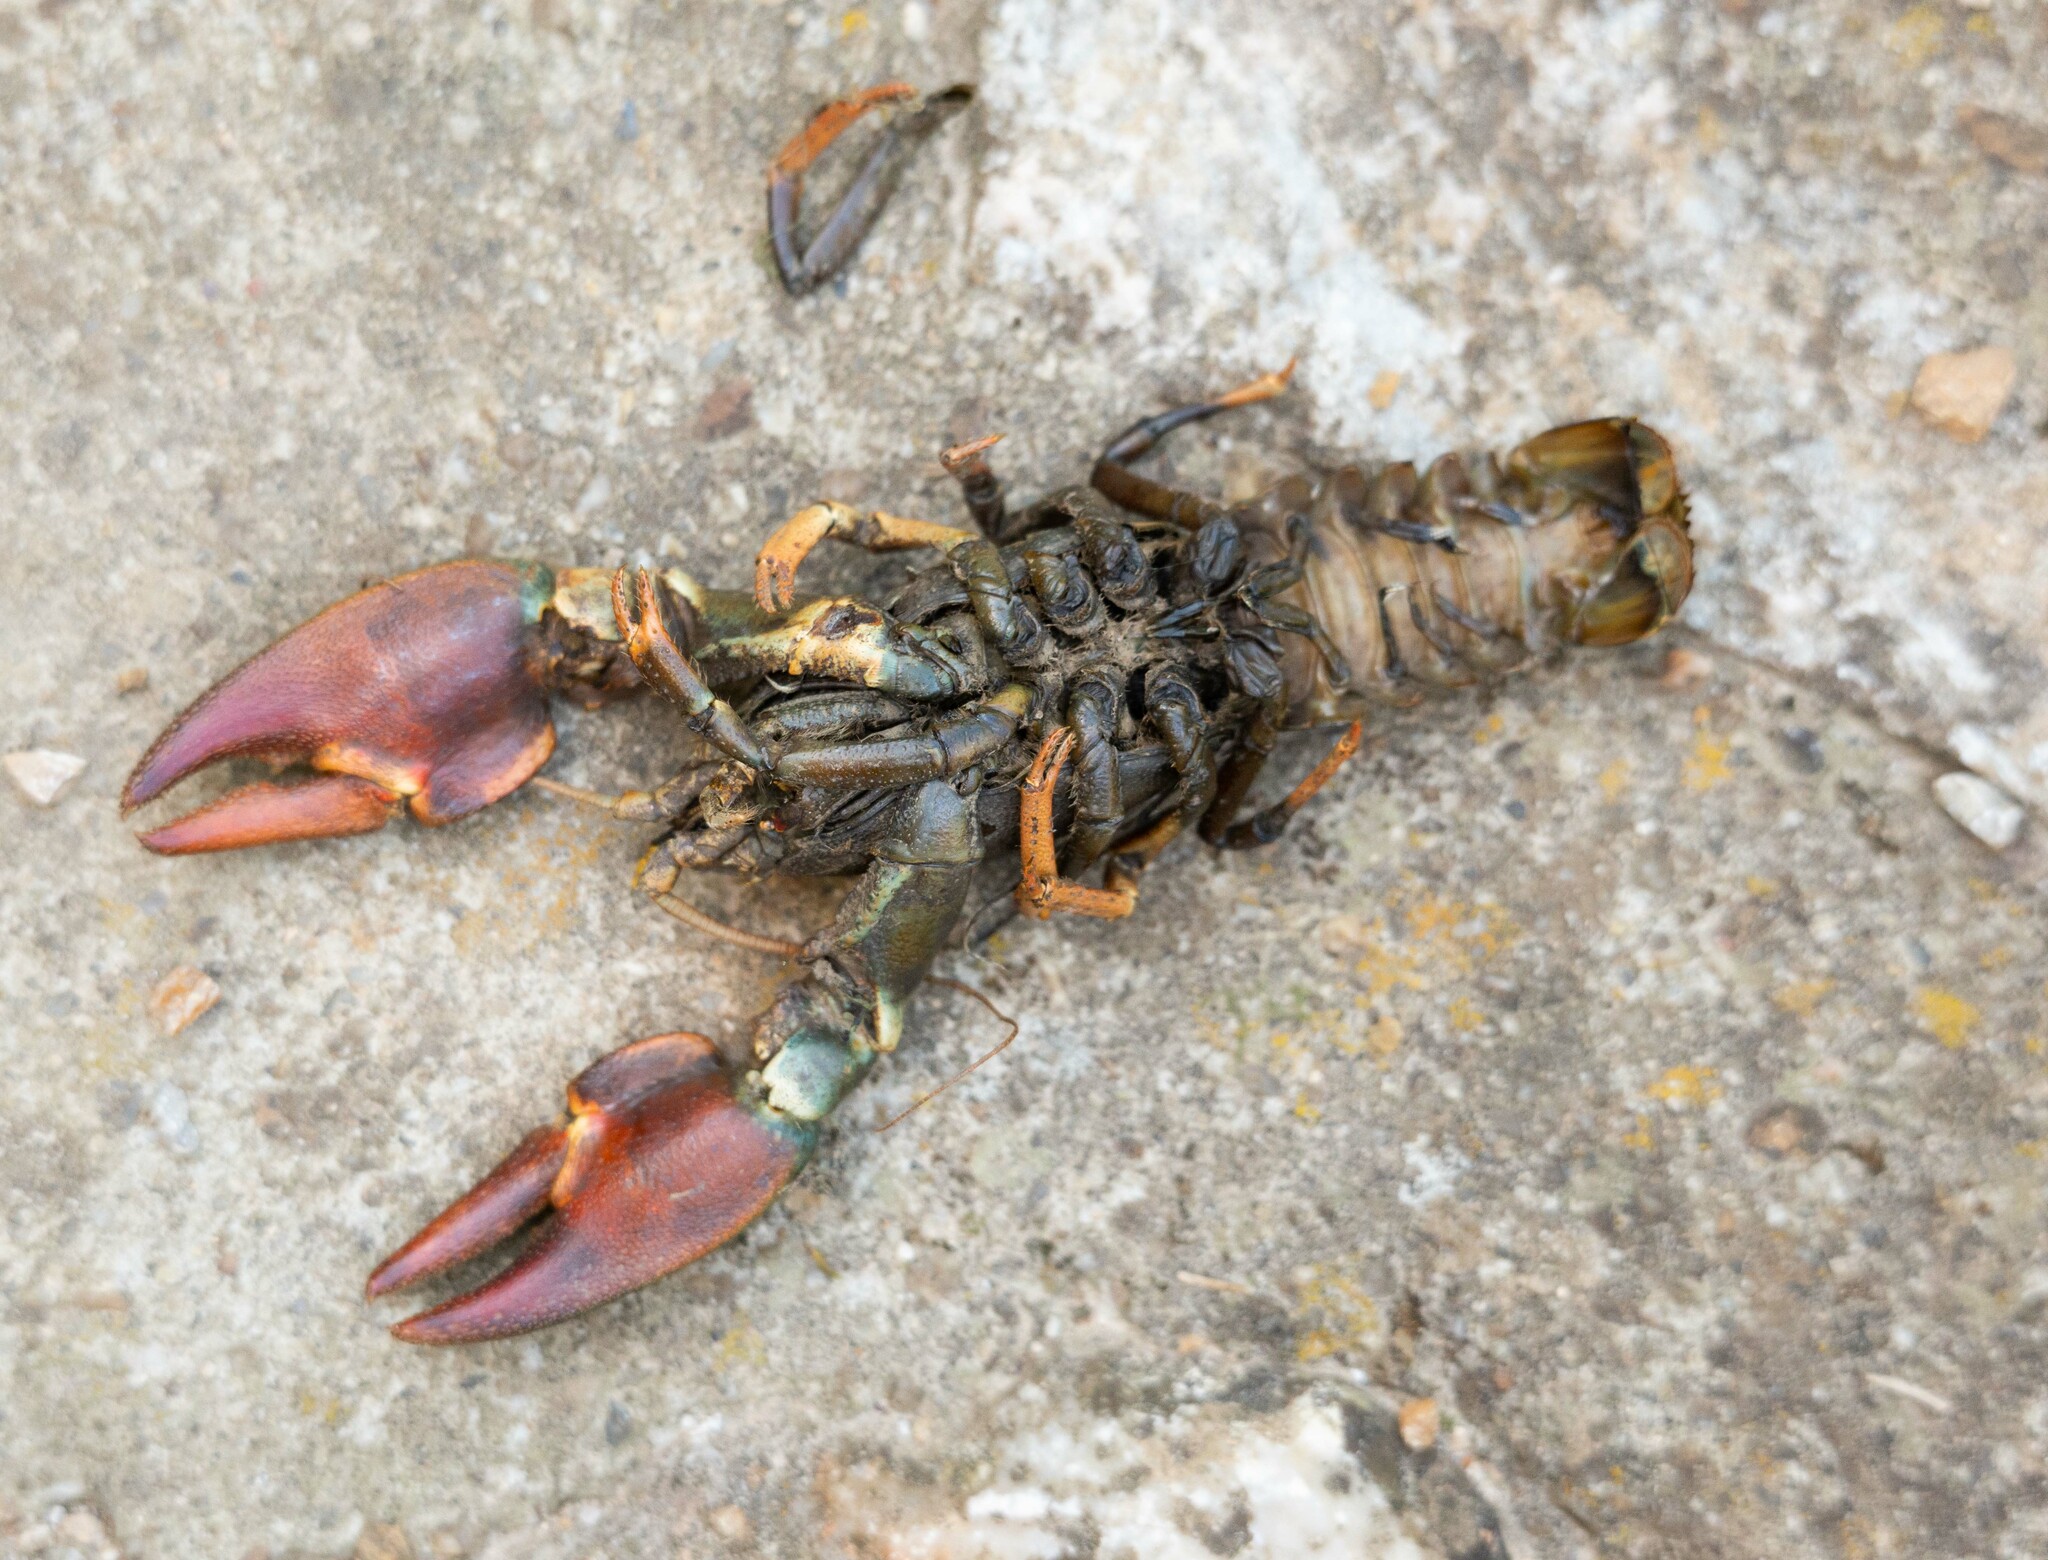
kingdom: Animalia
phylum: Arthropoda
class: Malacostraca
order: Decapoda
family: Astacidae
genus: Pacifastacus
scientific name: Pacifastacus leniusculus
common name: Signal crayfish
